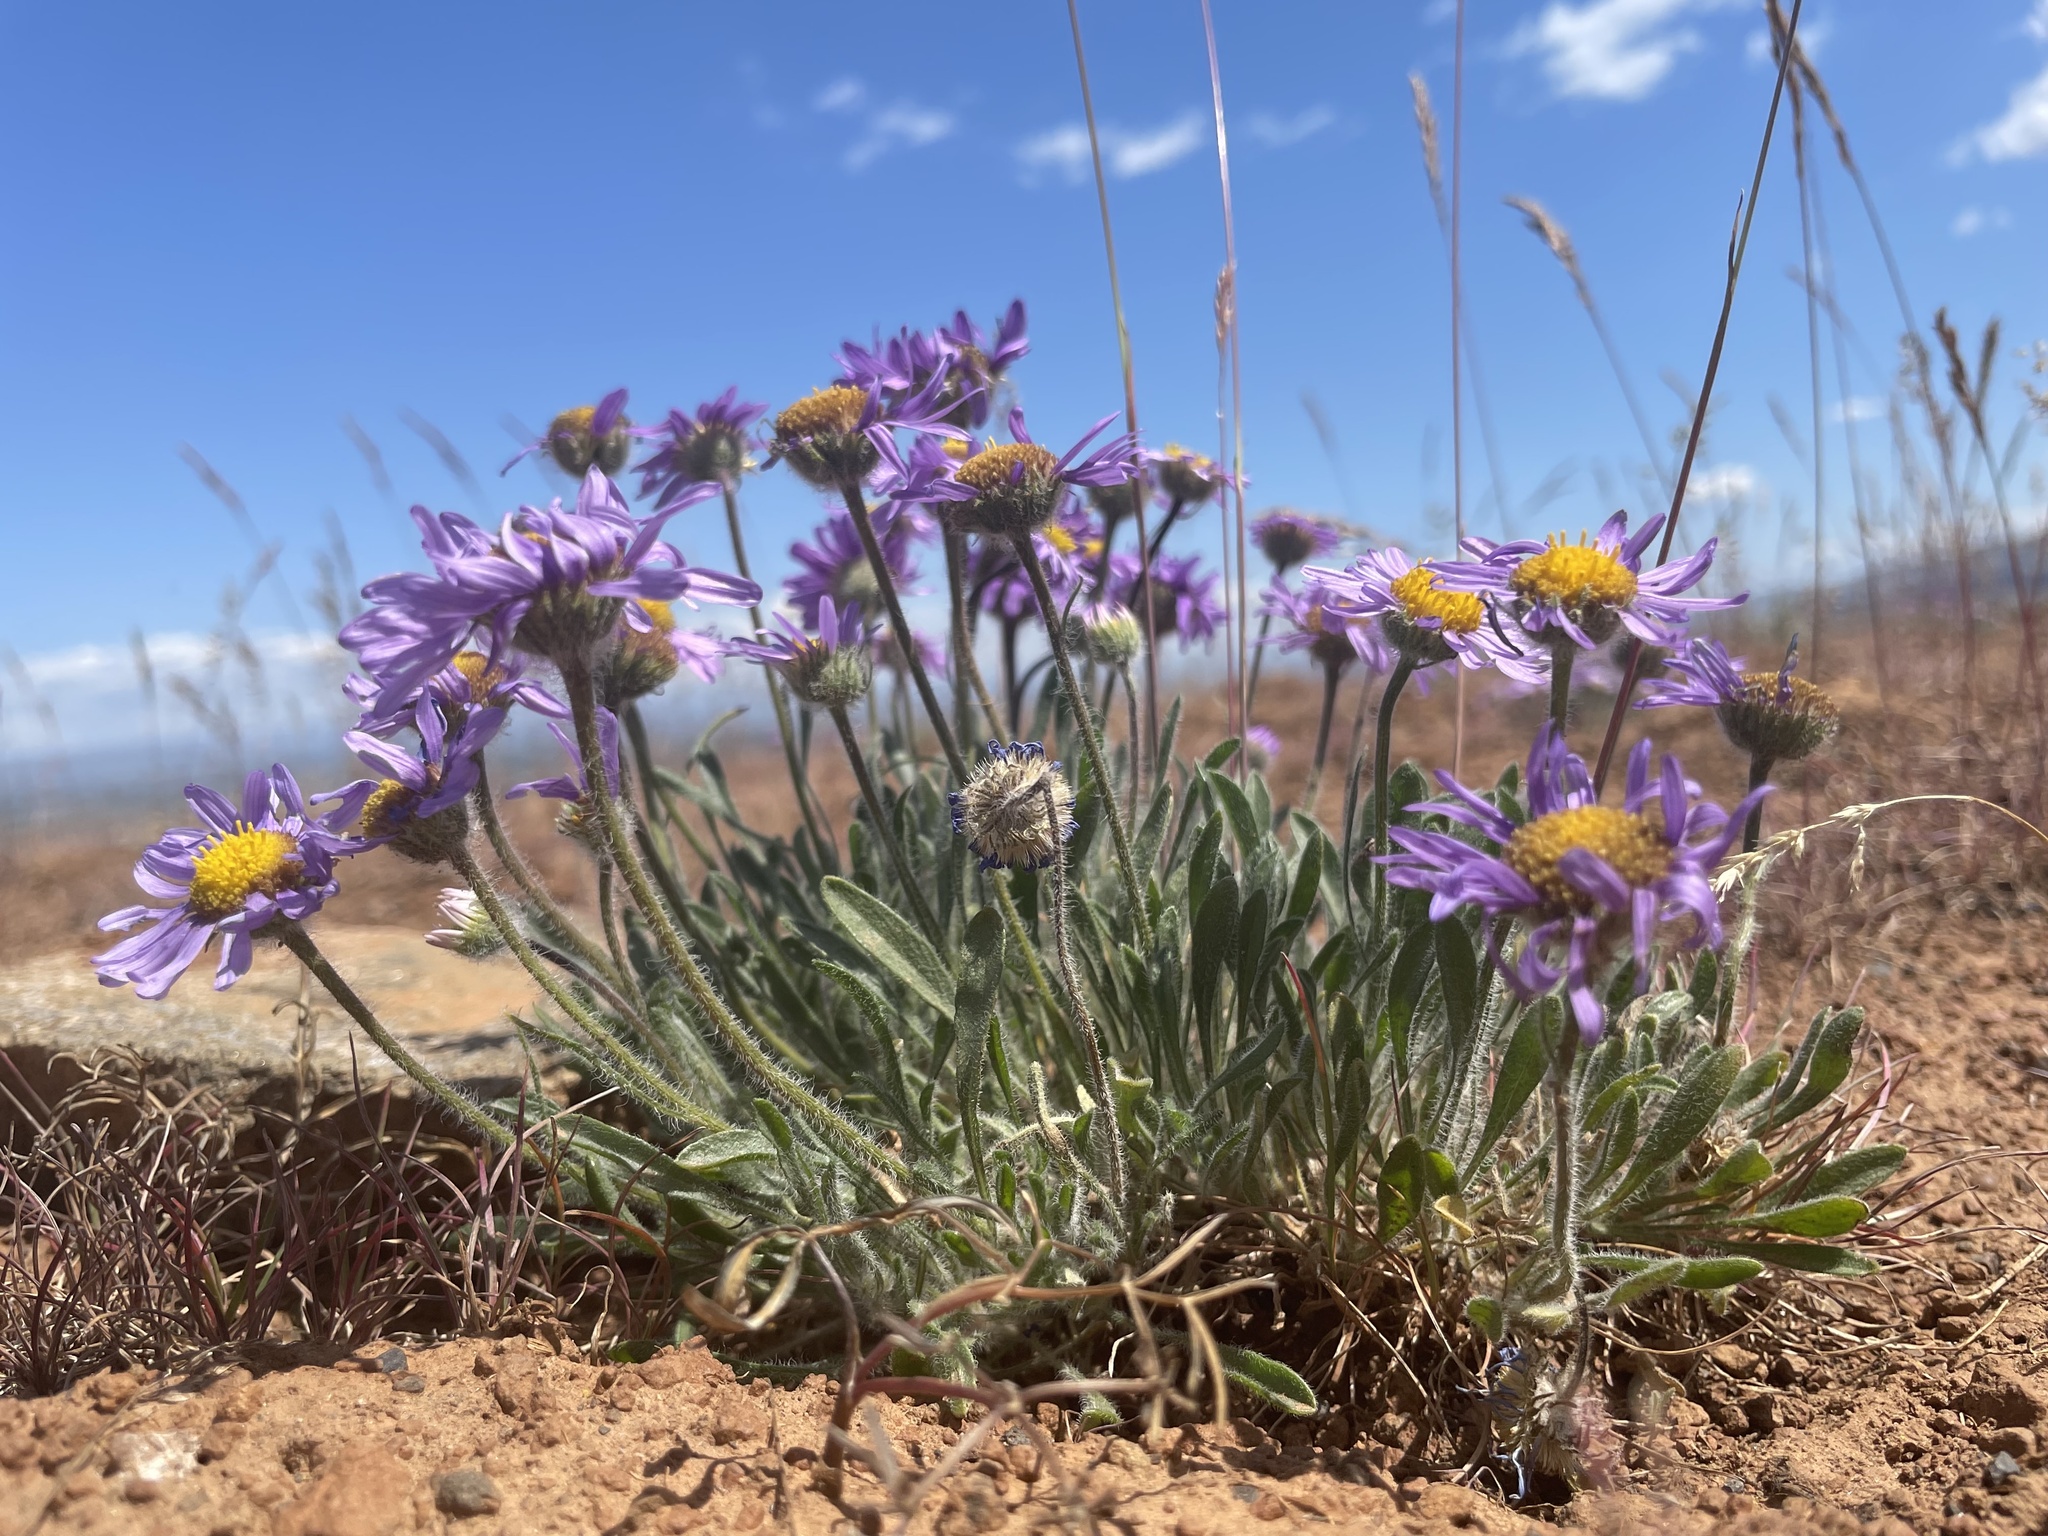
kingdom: Plantae
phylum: Tracheophyta
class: Magnoliopsida
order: Asterales
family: Asteraceae
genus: Erigeron
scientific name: Erigeron poliospermus
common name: Cushion fleabane
